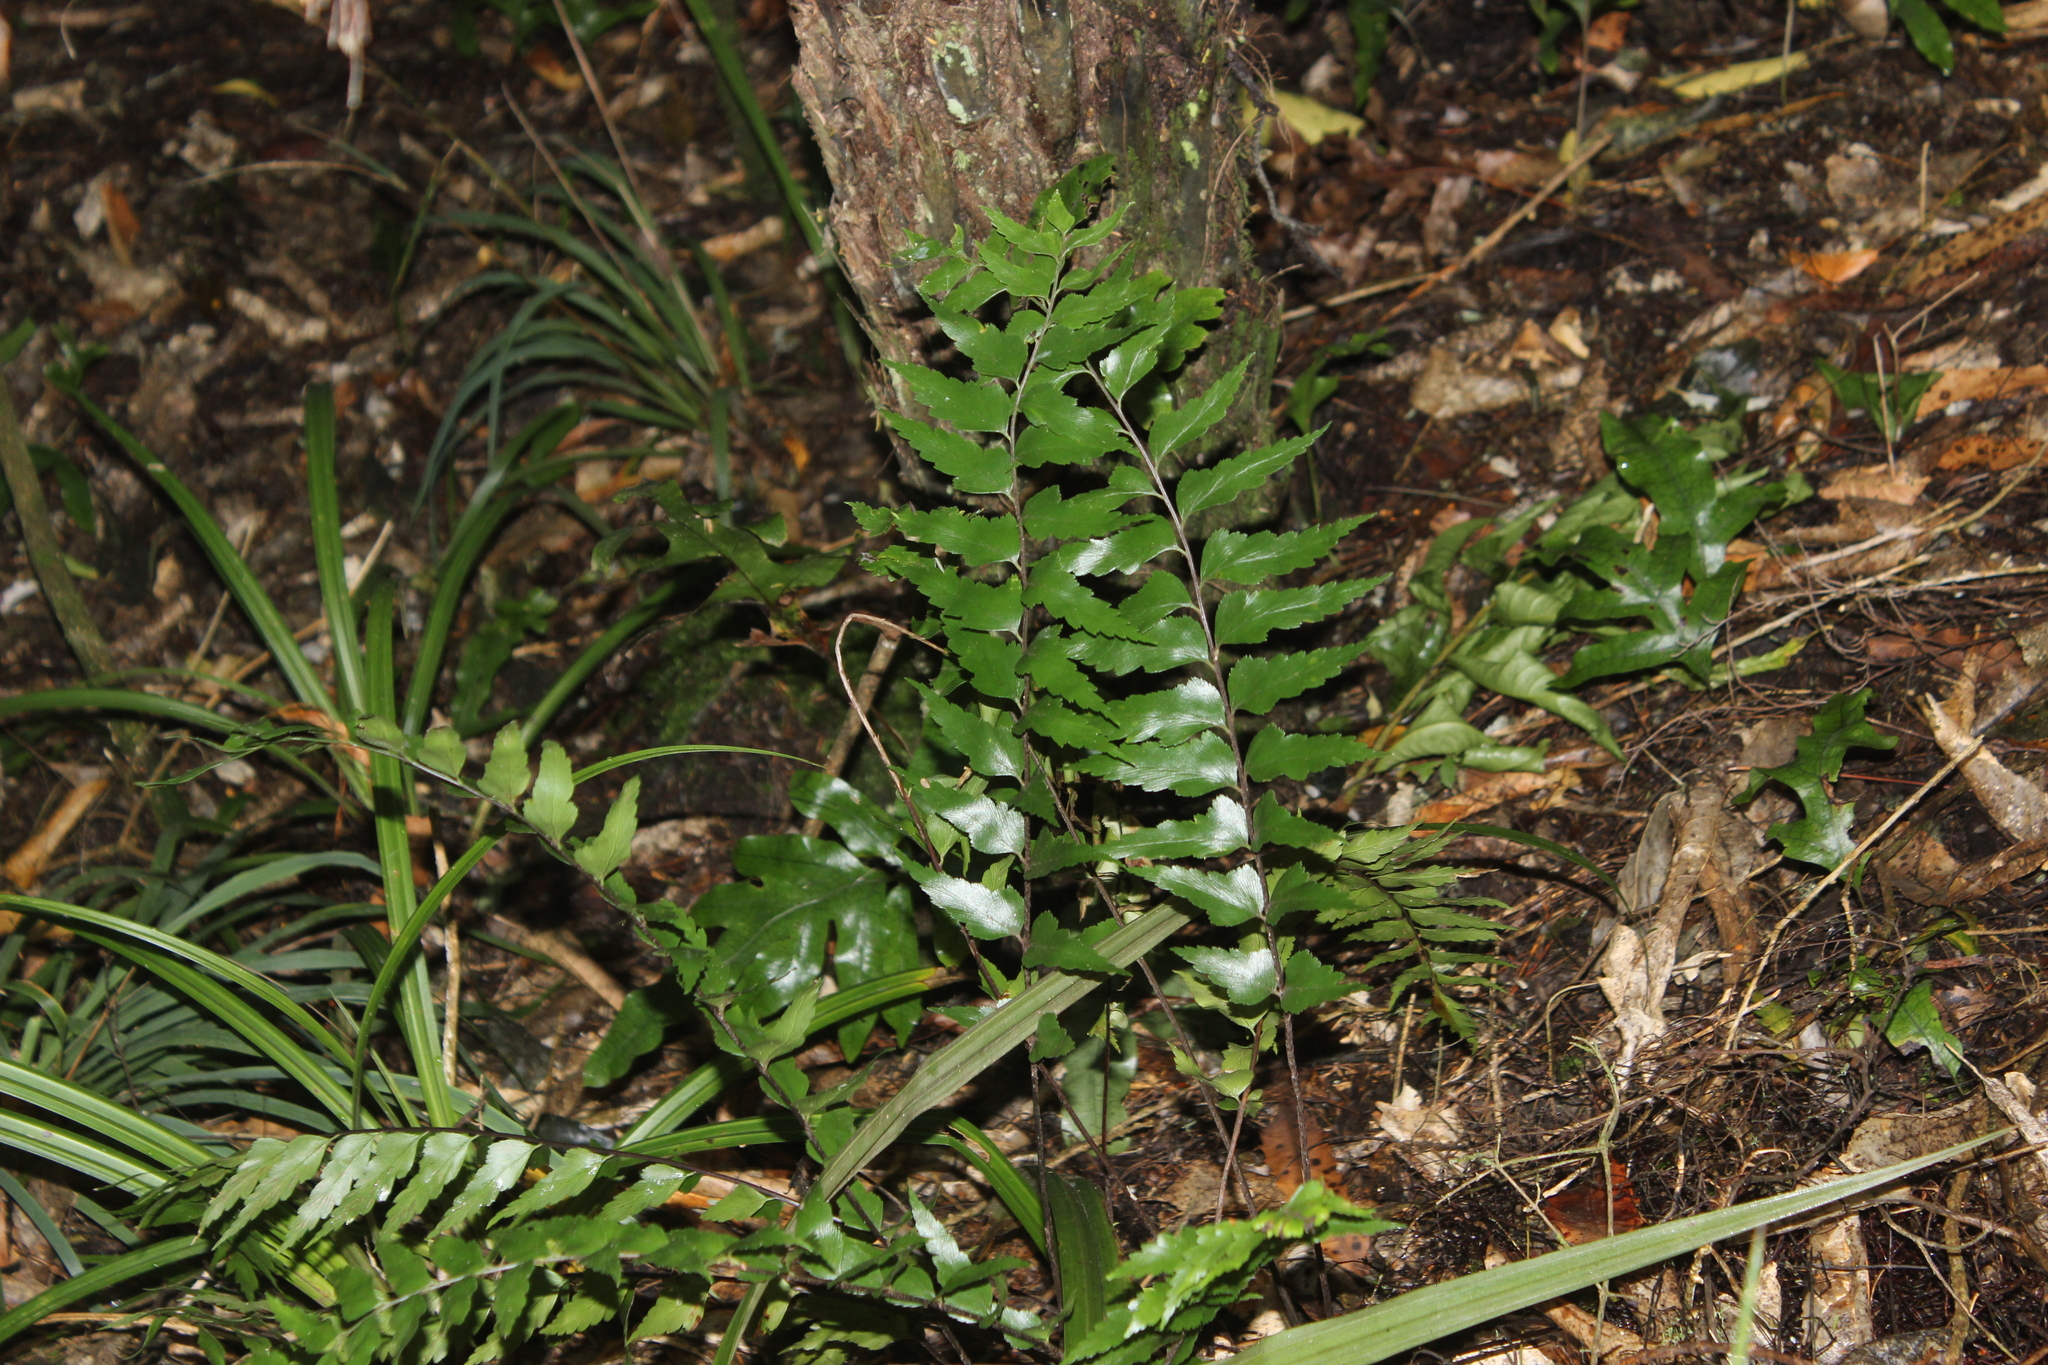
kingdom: Plantae
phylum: Tracheophyta
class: Polypodiopsida
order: Polypodiales
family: Aspleniaceae
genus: Asplenium
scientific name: Asplenium polyodon
